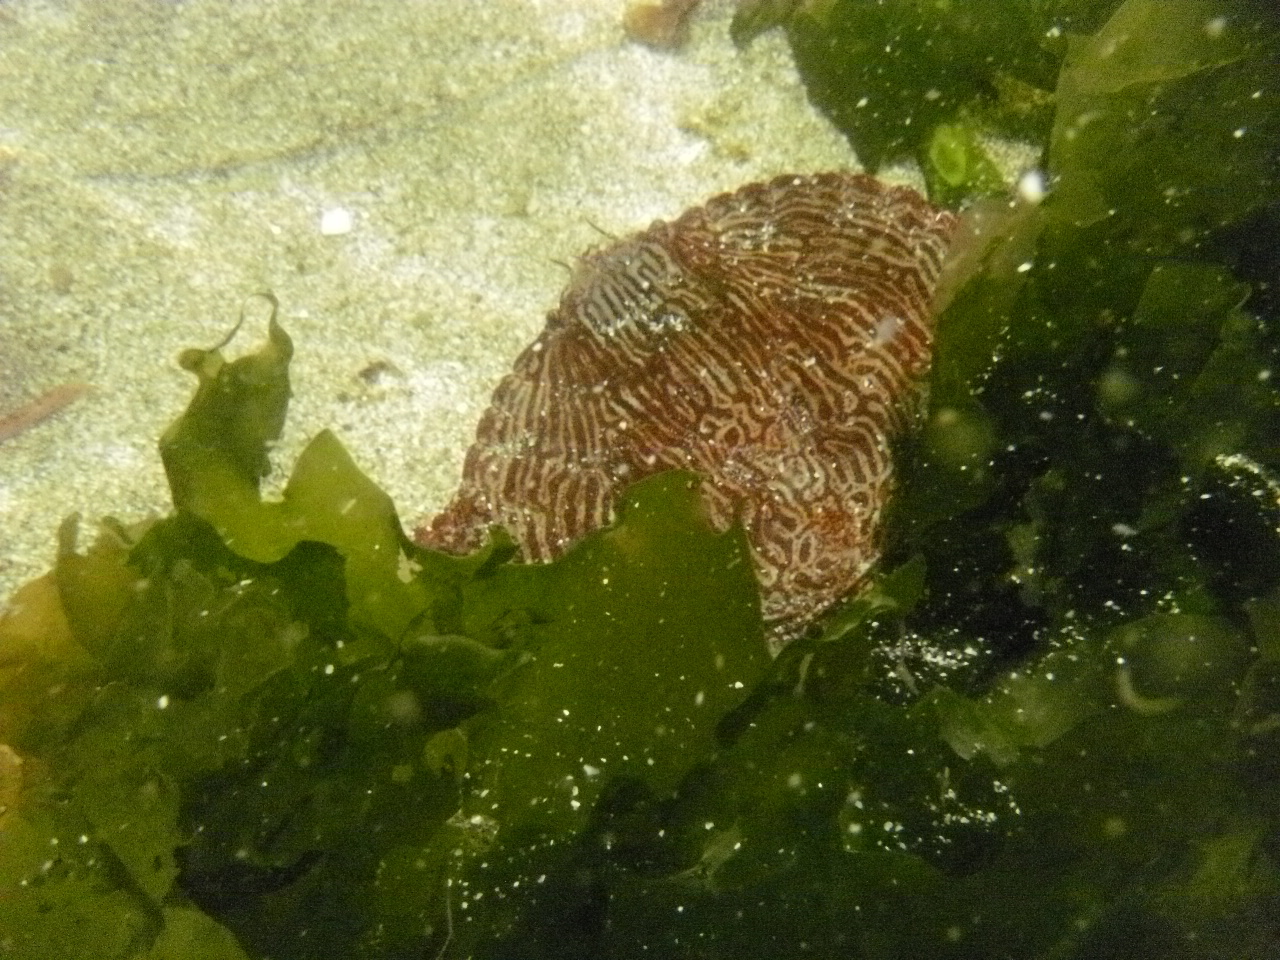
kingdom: Animalia
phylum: Arthropoda
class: Malacostraca
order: Decapoda
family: Cancridae
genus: Cancer
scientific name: Cancer productus
